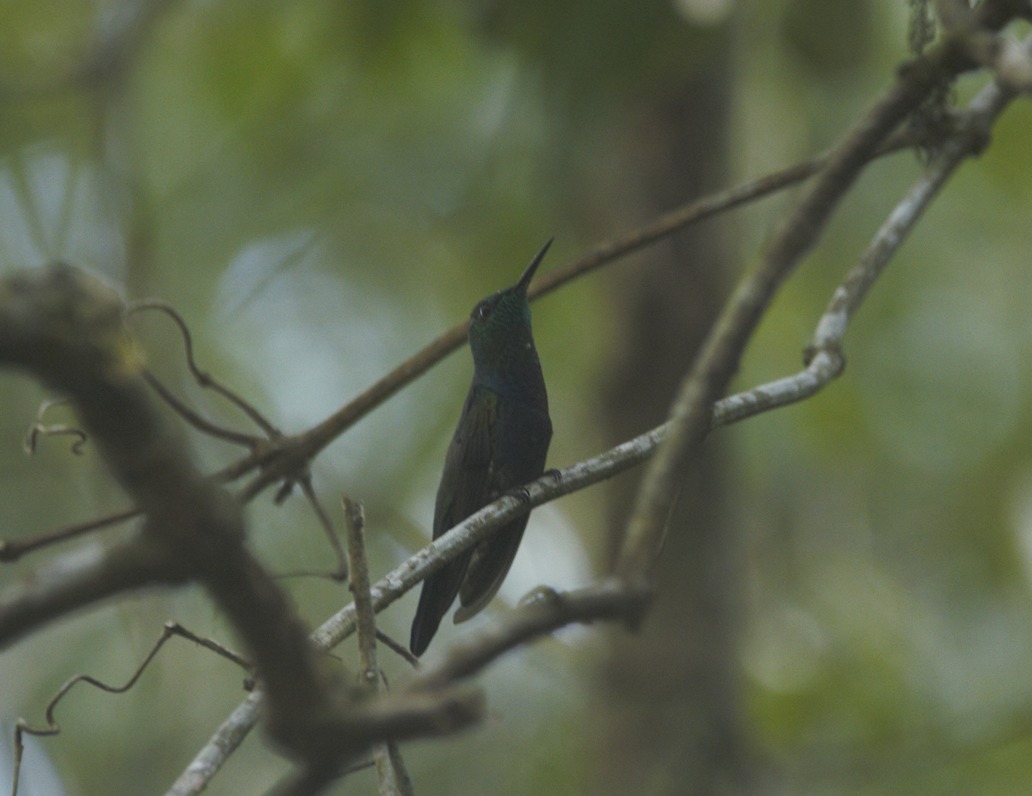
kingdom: Animalia
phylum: Chordata
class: Aves
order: Apodiformes
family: Trochilidae
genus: Thalurania
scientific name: Thalurania furcata
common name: Fork-tailed woodnymph
